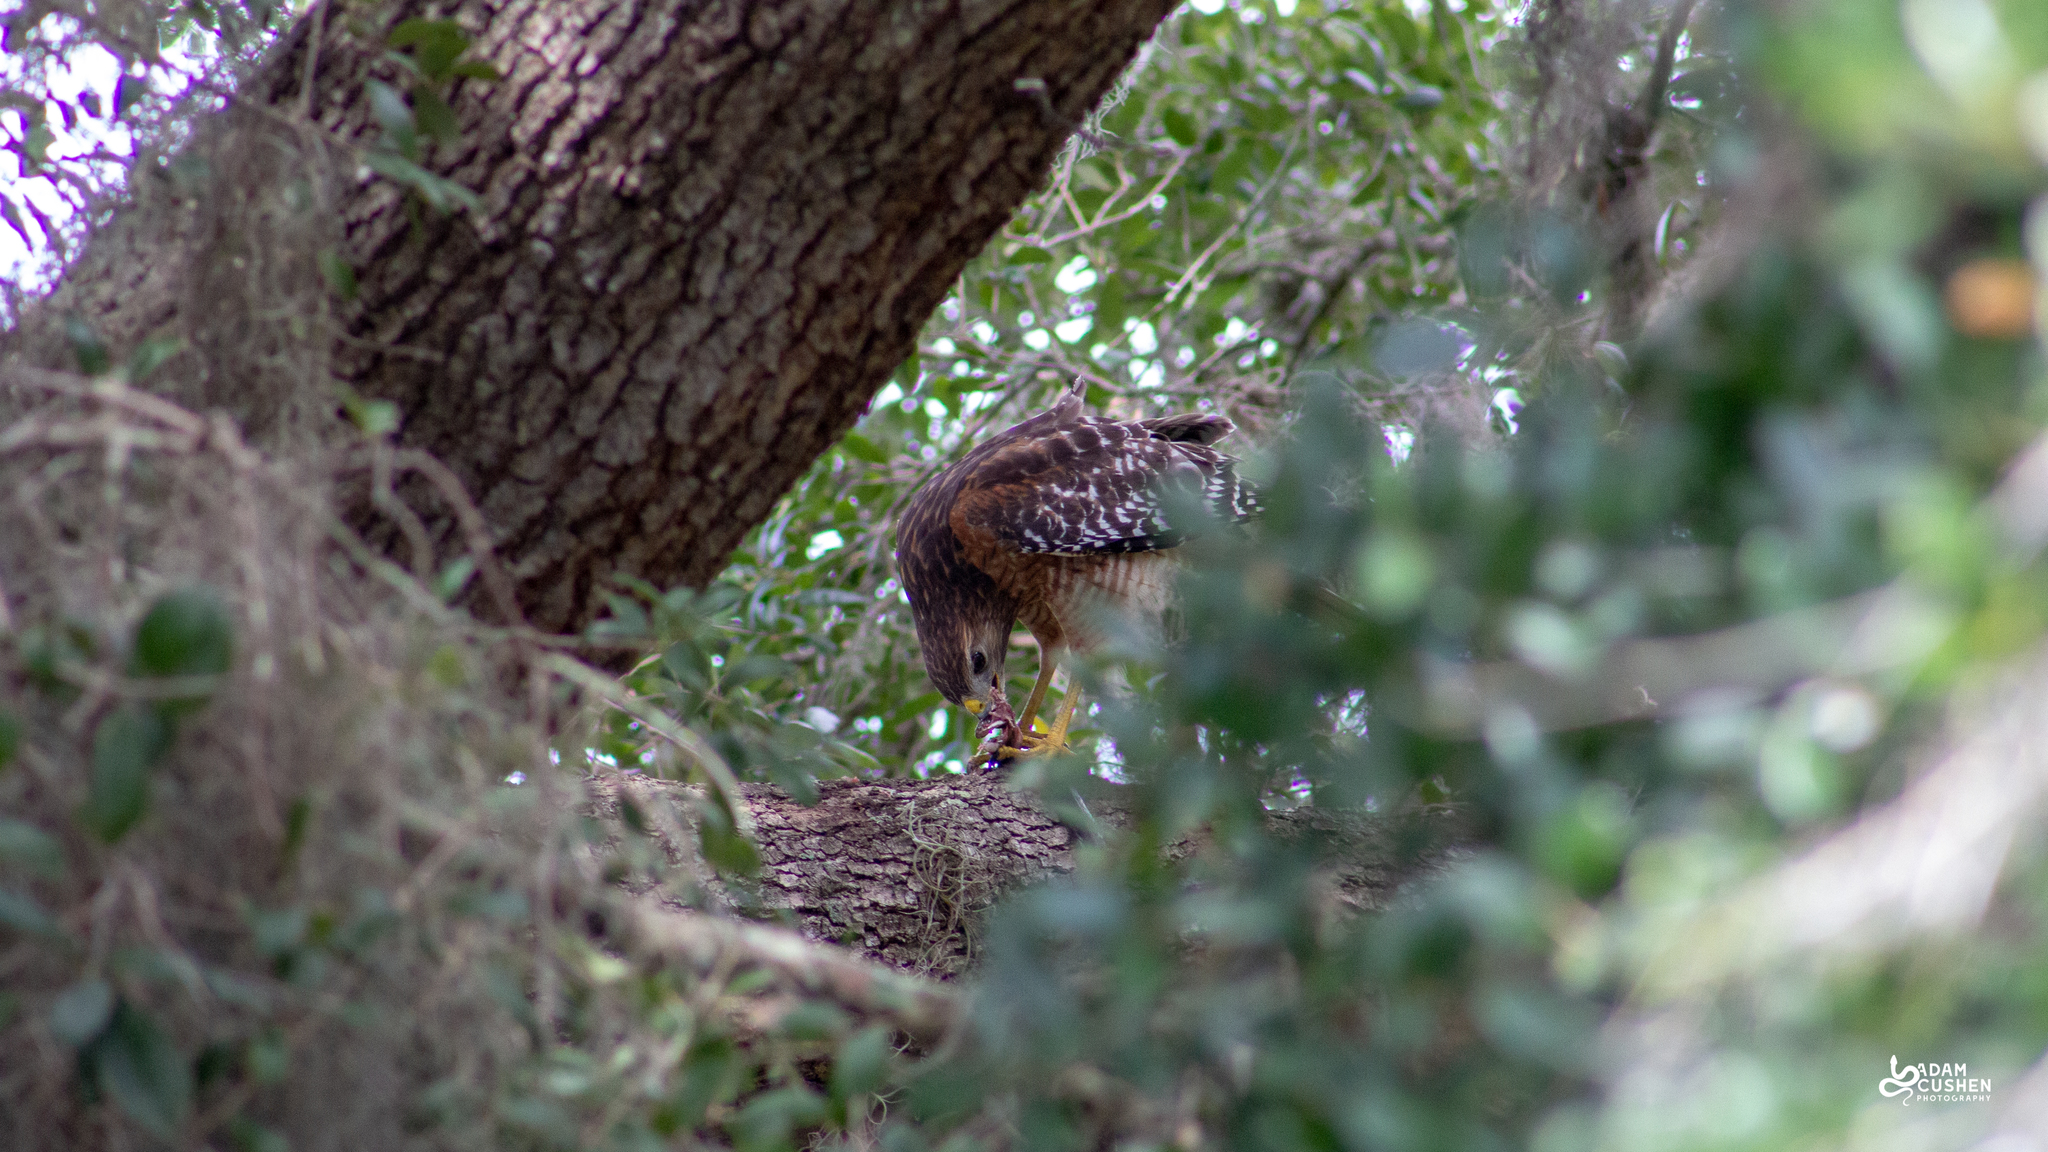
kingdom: Animalia
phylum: Chordata
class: Aves
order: Accipitriformes
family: Accipitridae
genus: Buteo
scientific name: Buteo lineatus
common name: Red-shouldered hawk
